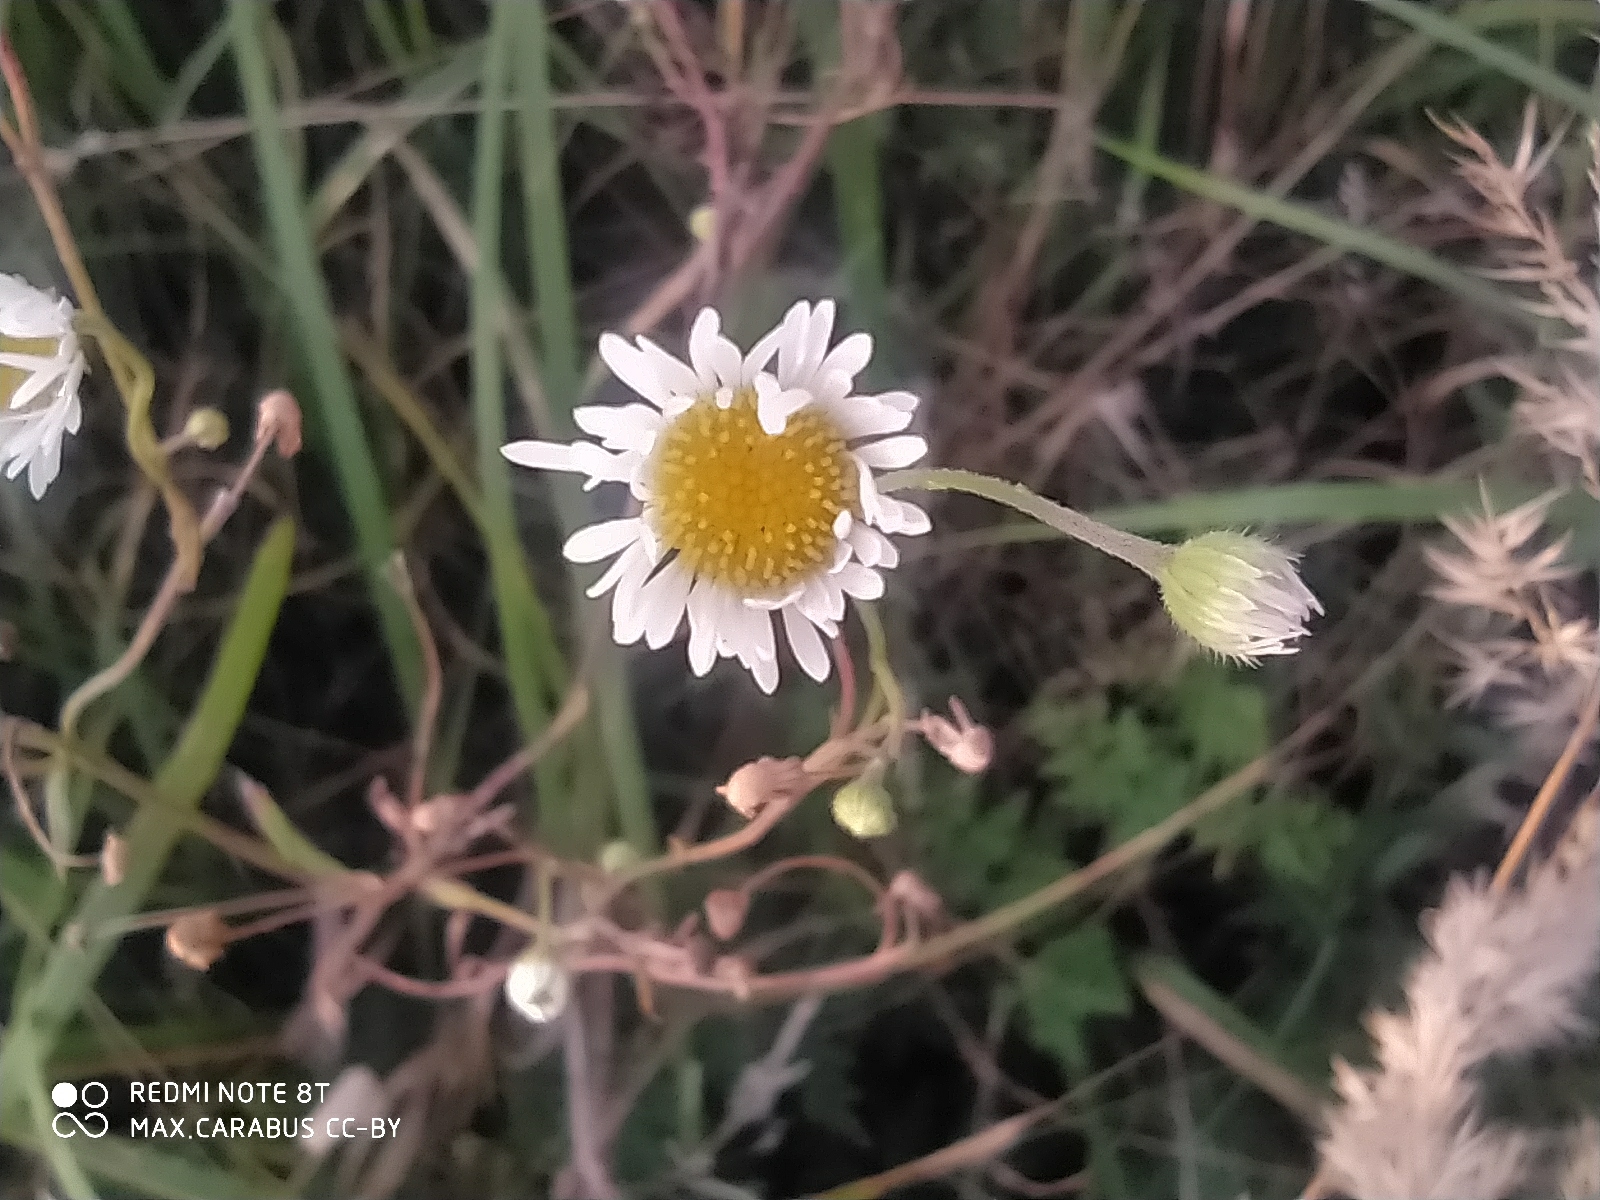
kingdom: Plantae
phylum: Tracheophyta
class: Magnoliopsida
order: Asterales
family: Asteraceae
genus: Erigeron
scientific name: Erigeron annuus
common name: Tall fleabane
